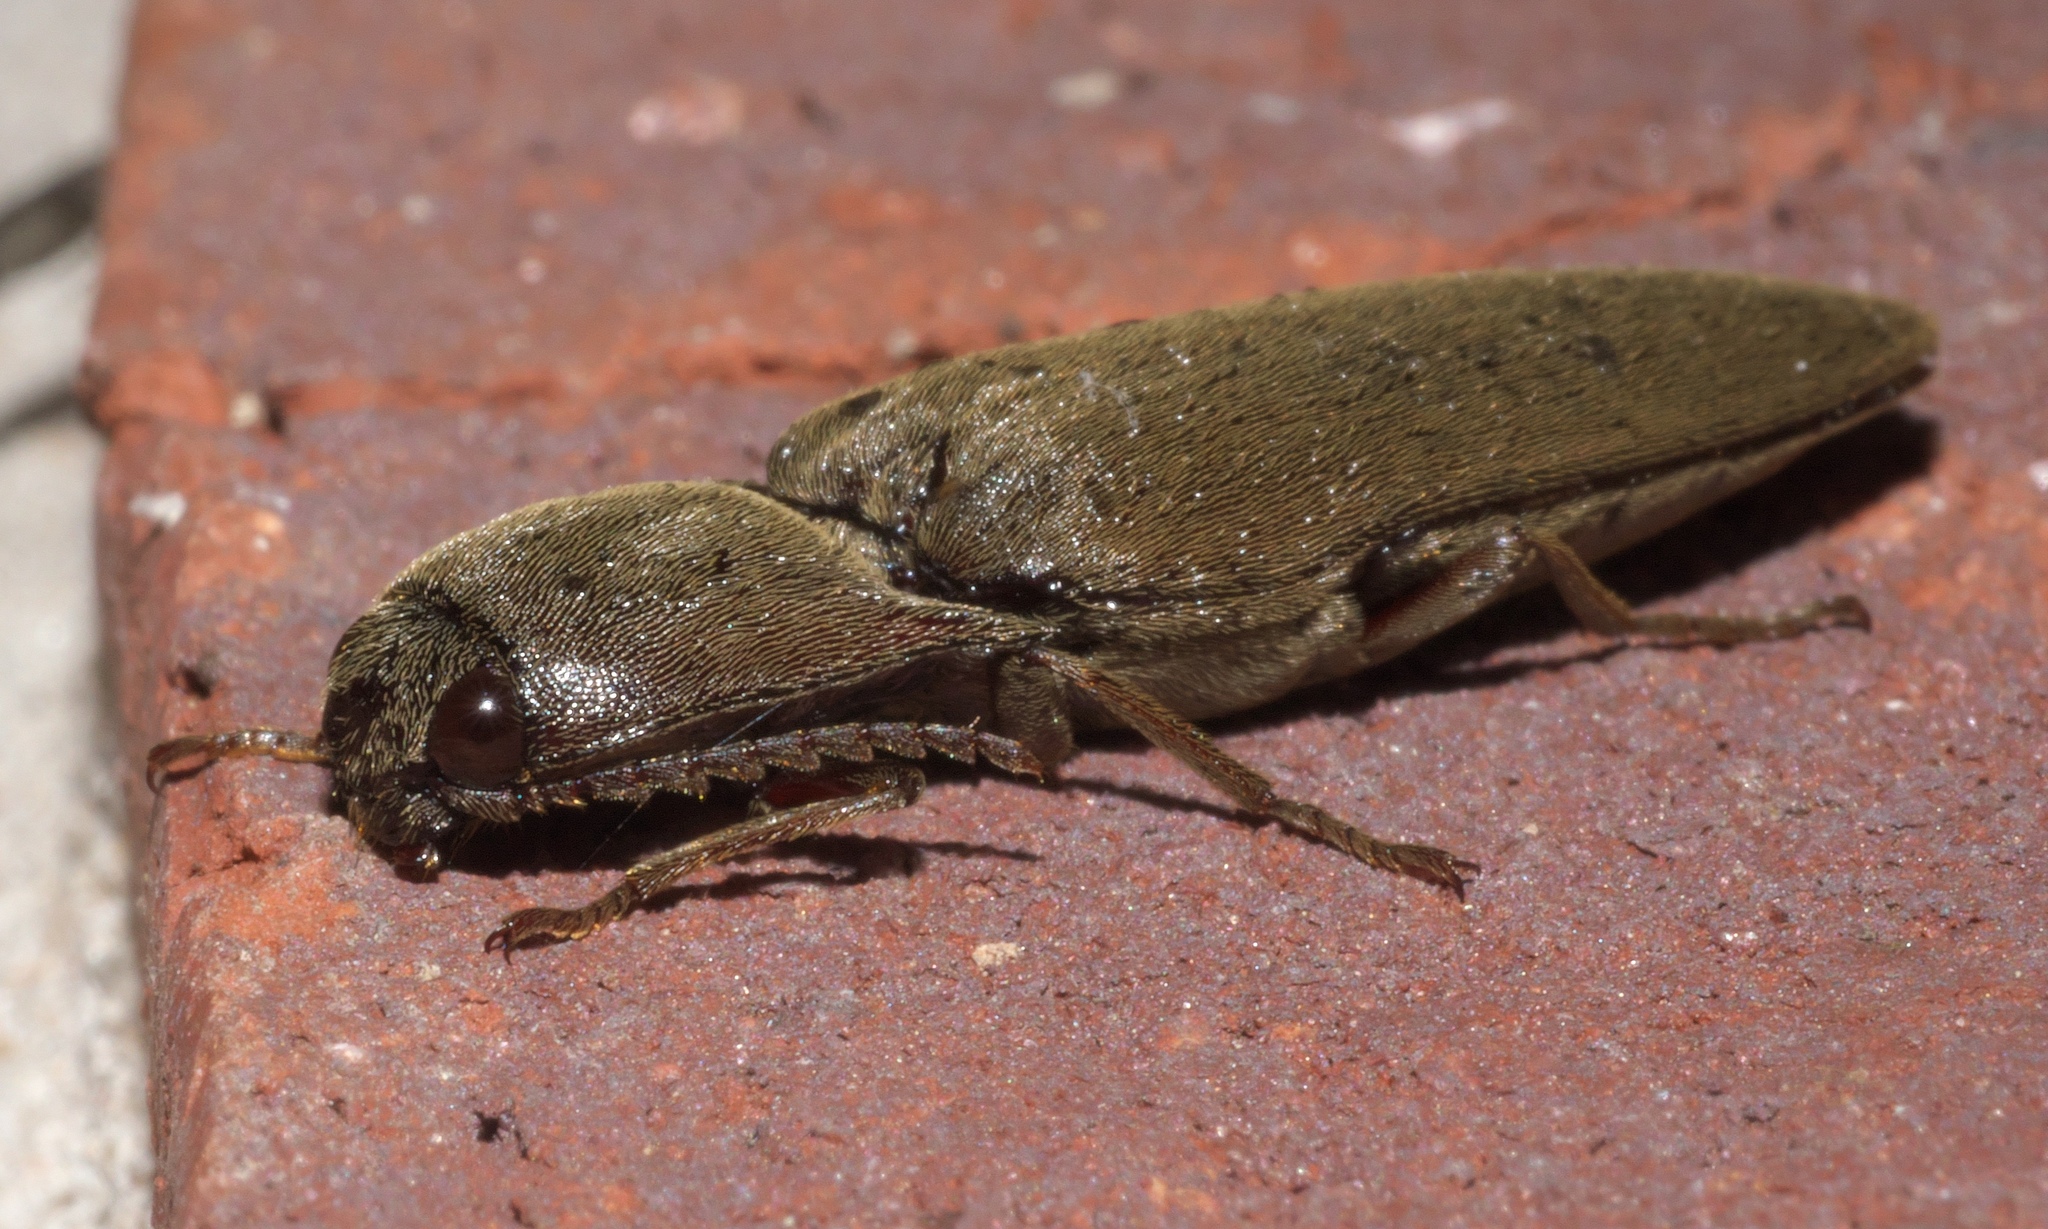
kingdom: Animalia
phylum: Arthropoda
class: Insecta
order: Coleoptera
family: Elateridae
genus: Orthostethus
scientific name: Orthostethus infuscatus
